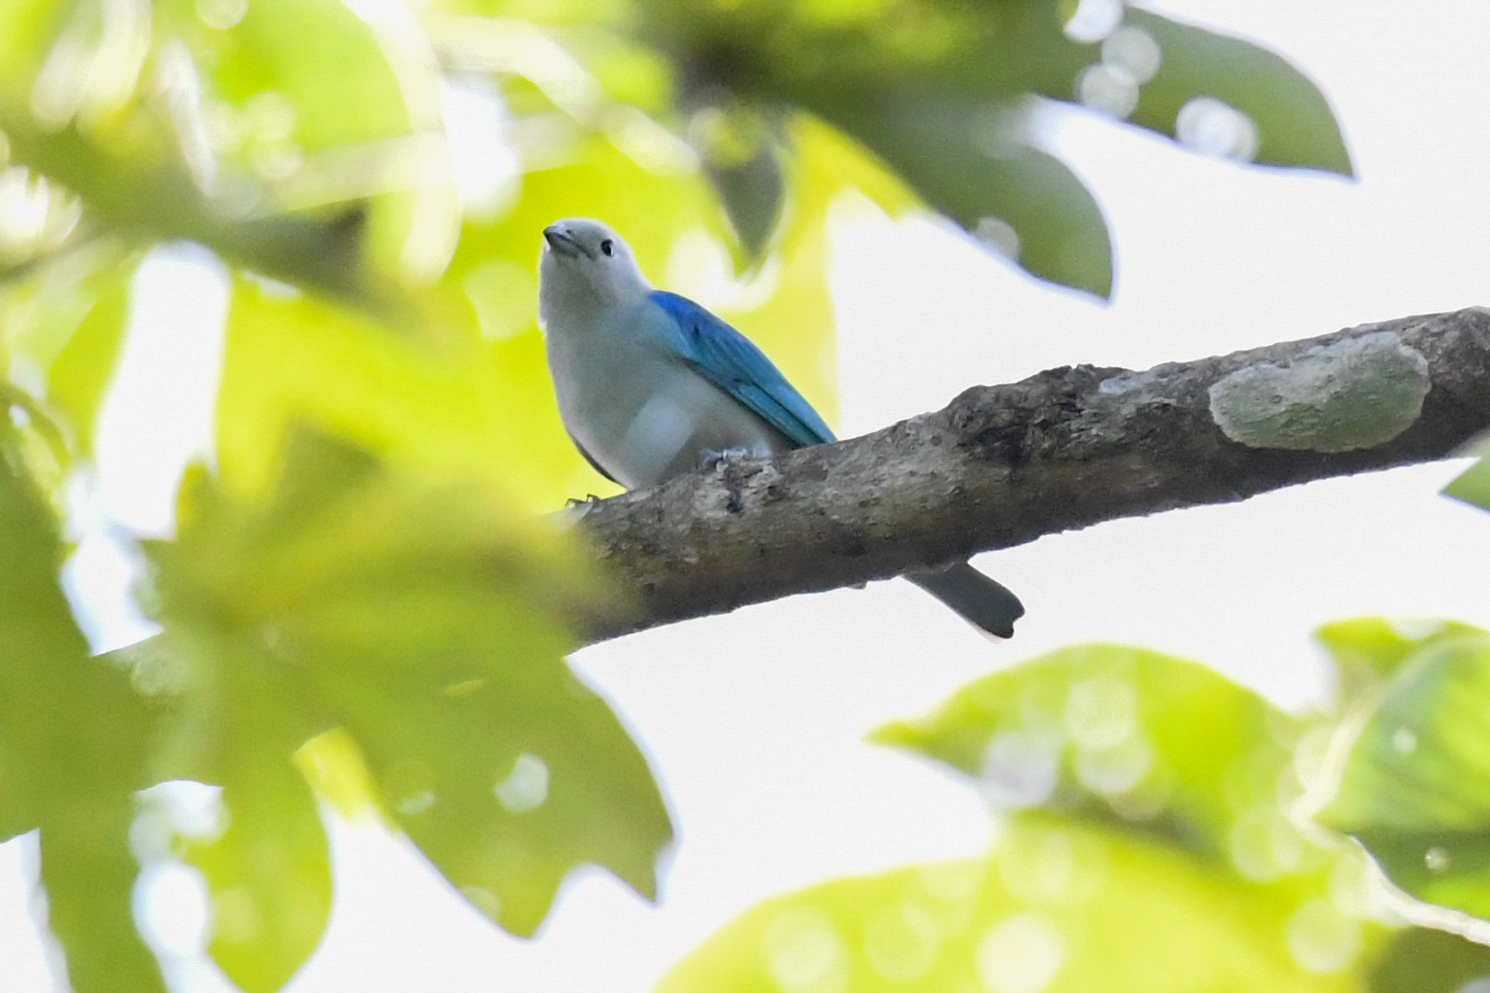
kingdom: Animalia
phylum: Chordata
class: Aves
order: Passeriformes
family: Thraupidae
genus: Thraupis
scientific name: Thraupis episcopus
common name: Blue-grey tanager
